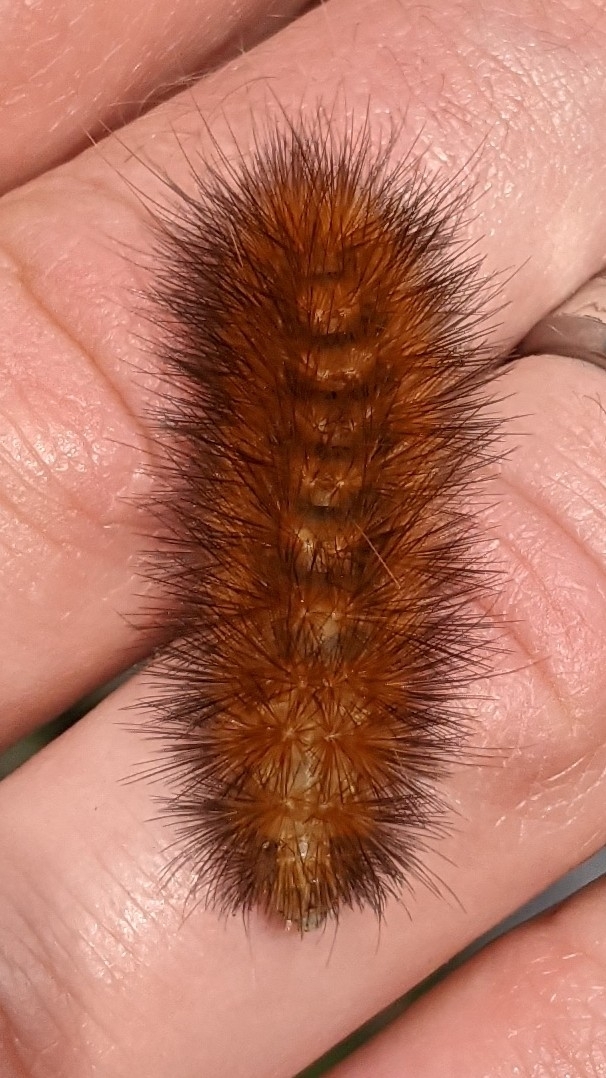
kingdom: Animalia
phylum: Arthropoda
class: Insecta
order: Lepidoptera
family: Erebidae
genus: Spilosoma
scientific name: Spilosoma virginica
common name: Virginia tiger moth
